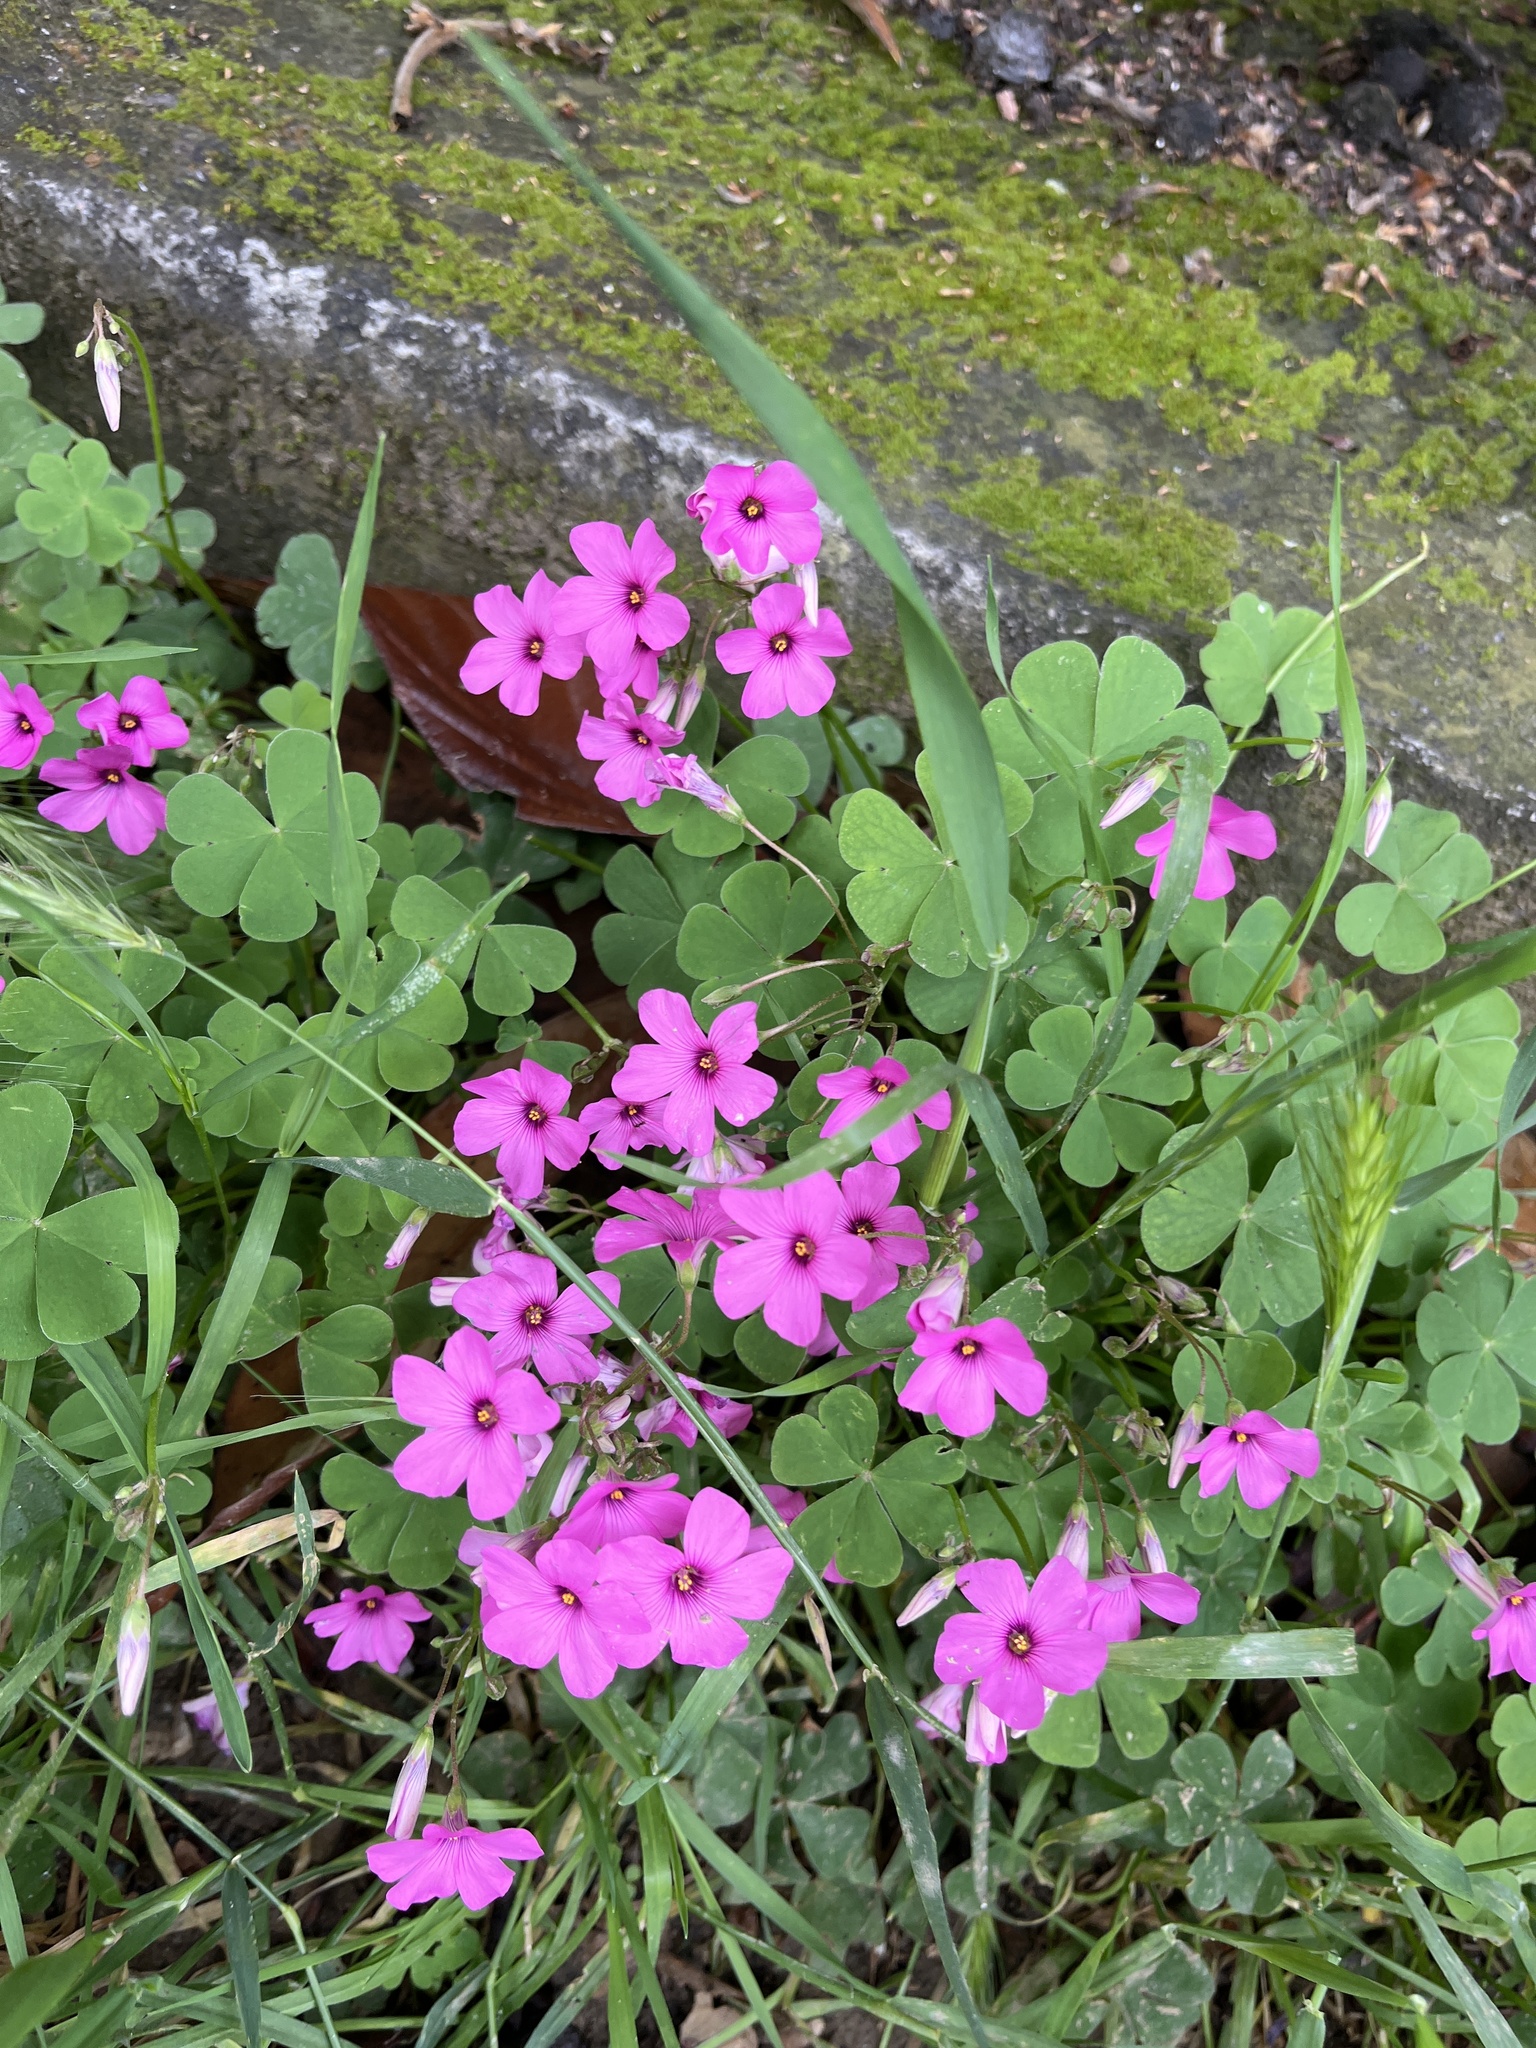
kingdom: Plantae
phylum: Tracheophyta
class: Magnoliopsida
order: Oxalidales
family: Oxalidaceae
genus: Oxalis
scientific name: Oxalis articulata
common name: Pink-sorrel
